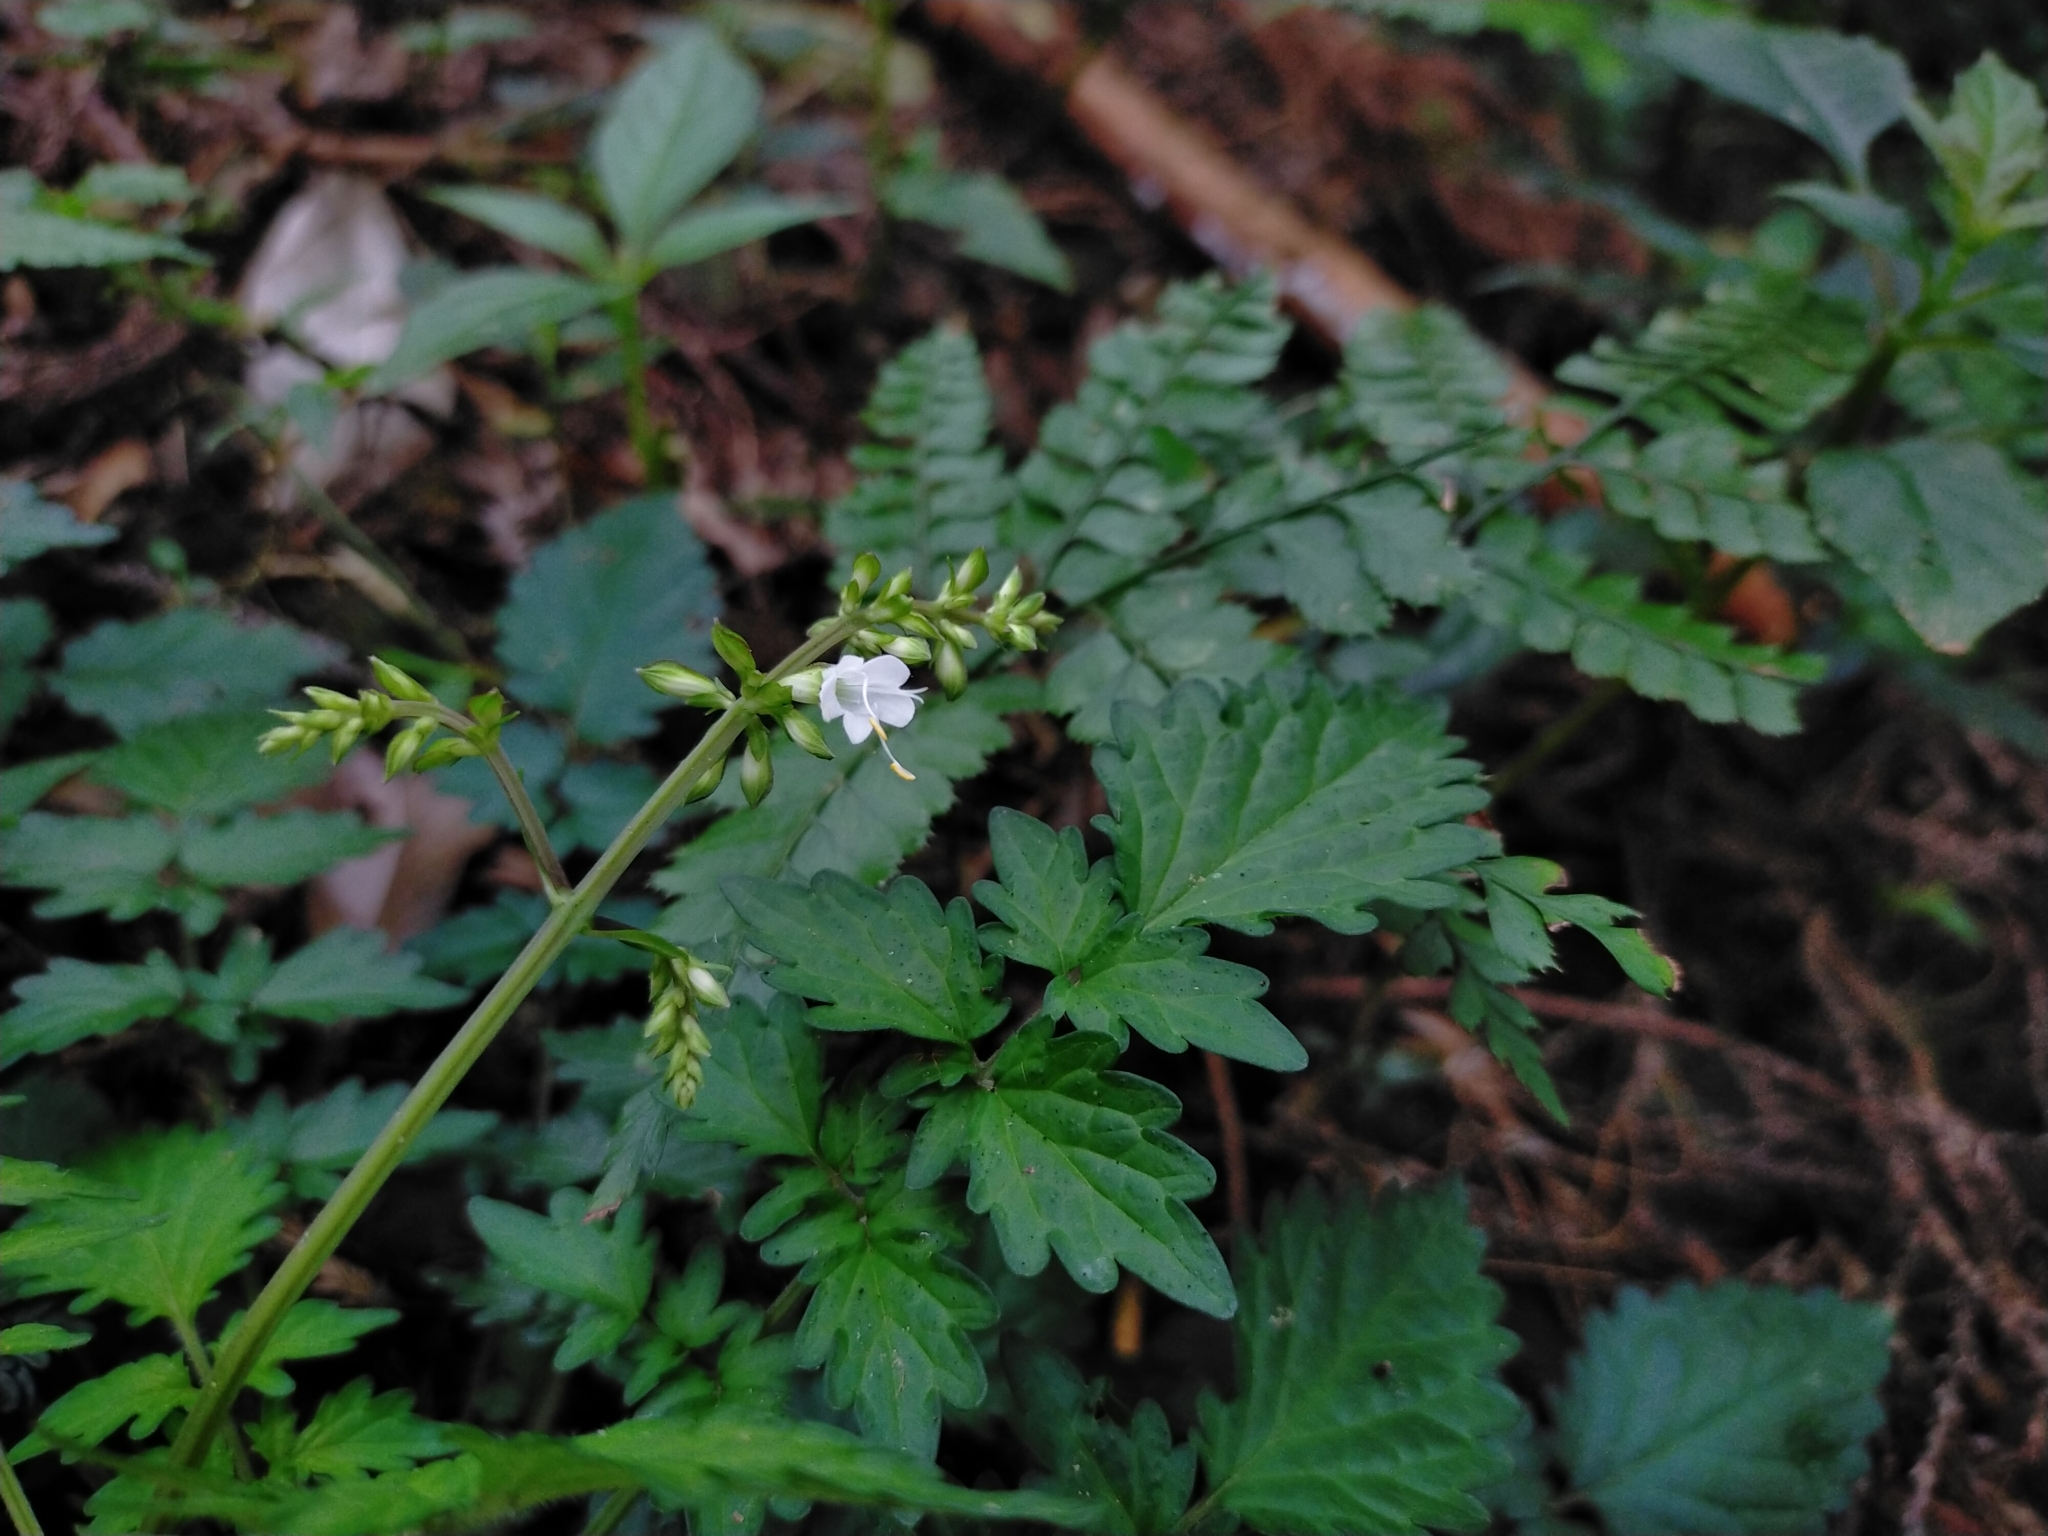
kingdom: Plantae
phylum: Tracheophyta
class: Magnoliopsida
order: Lamiales
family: Lamiaceae
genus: Salvia
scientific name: Salvia hayatae
